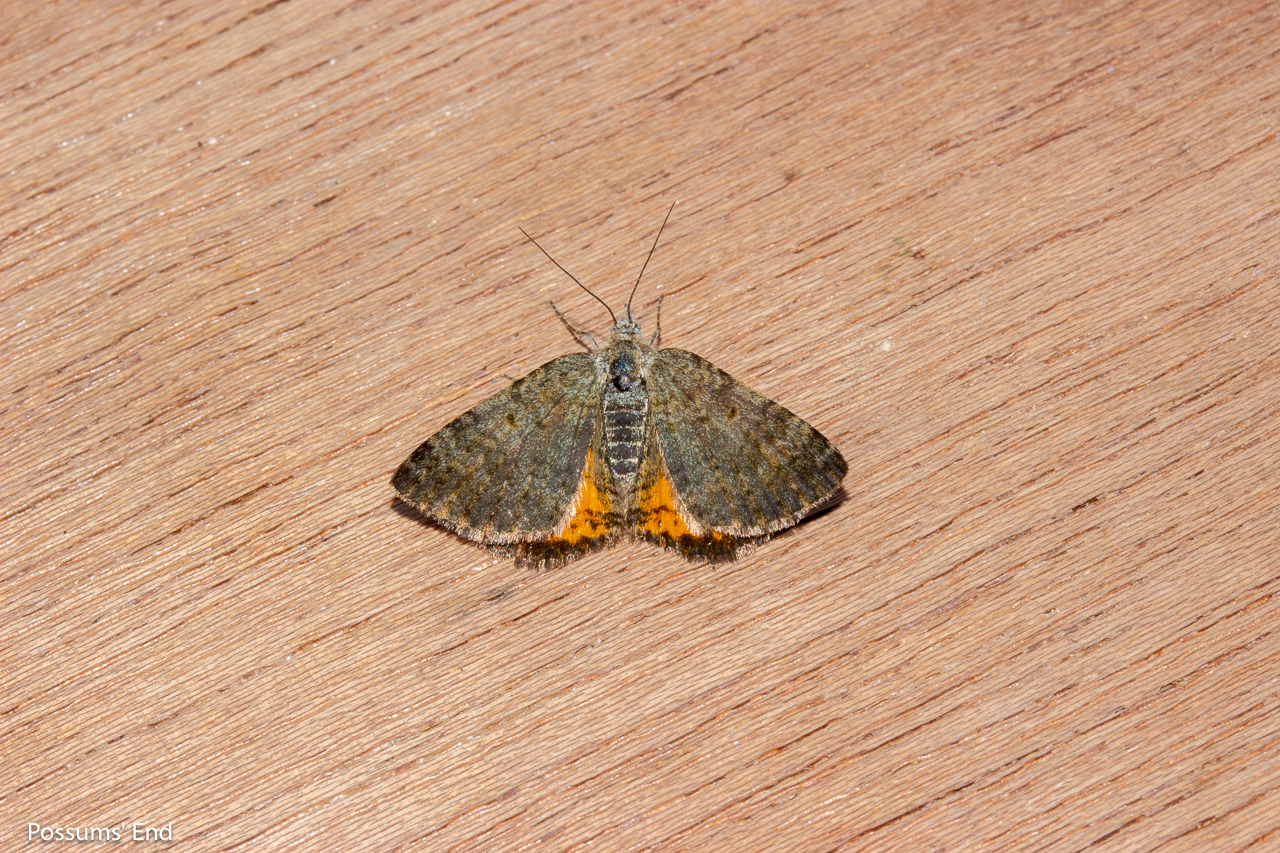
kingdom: Animalia
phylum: Arthropoda
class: Insecta
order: Lepidoptera
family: Geometridae
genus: Paranotoreas
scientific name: Paranotoreas brephosata
